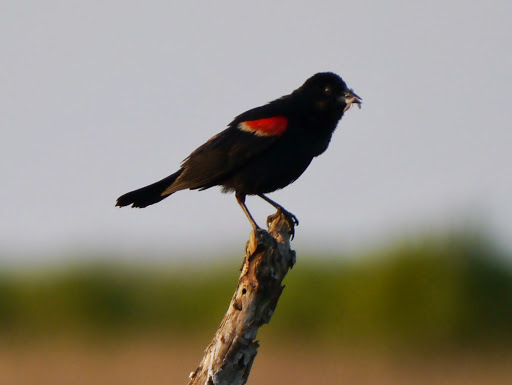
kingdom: Animalia
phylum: Chordata
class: Aves
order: Passeriformes
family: Icteridae
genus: Agelaius
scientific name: Agelaius phoeniceus
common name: Red-winged blackbird
